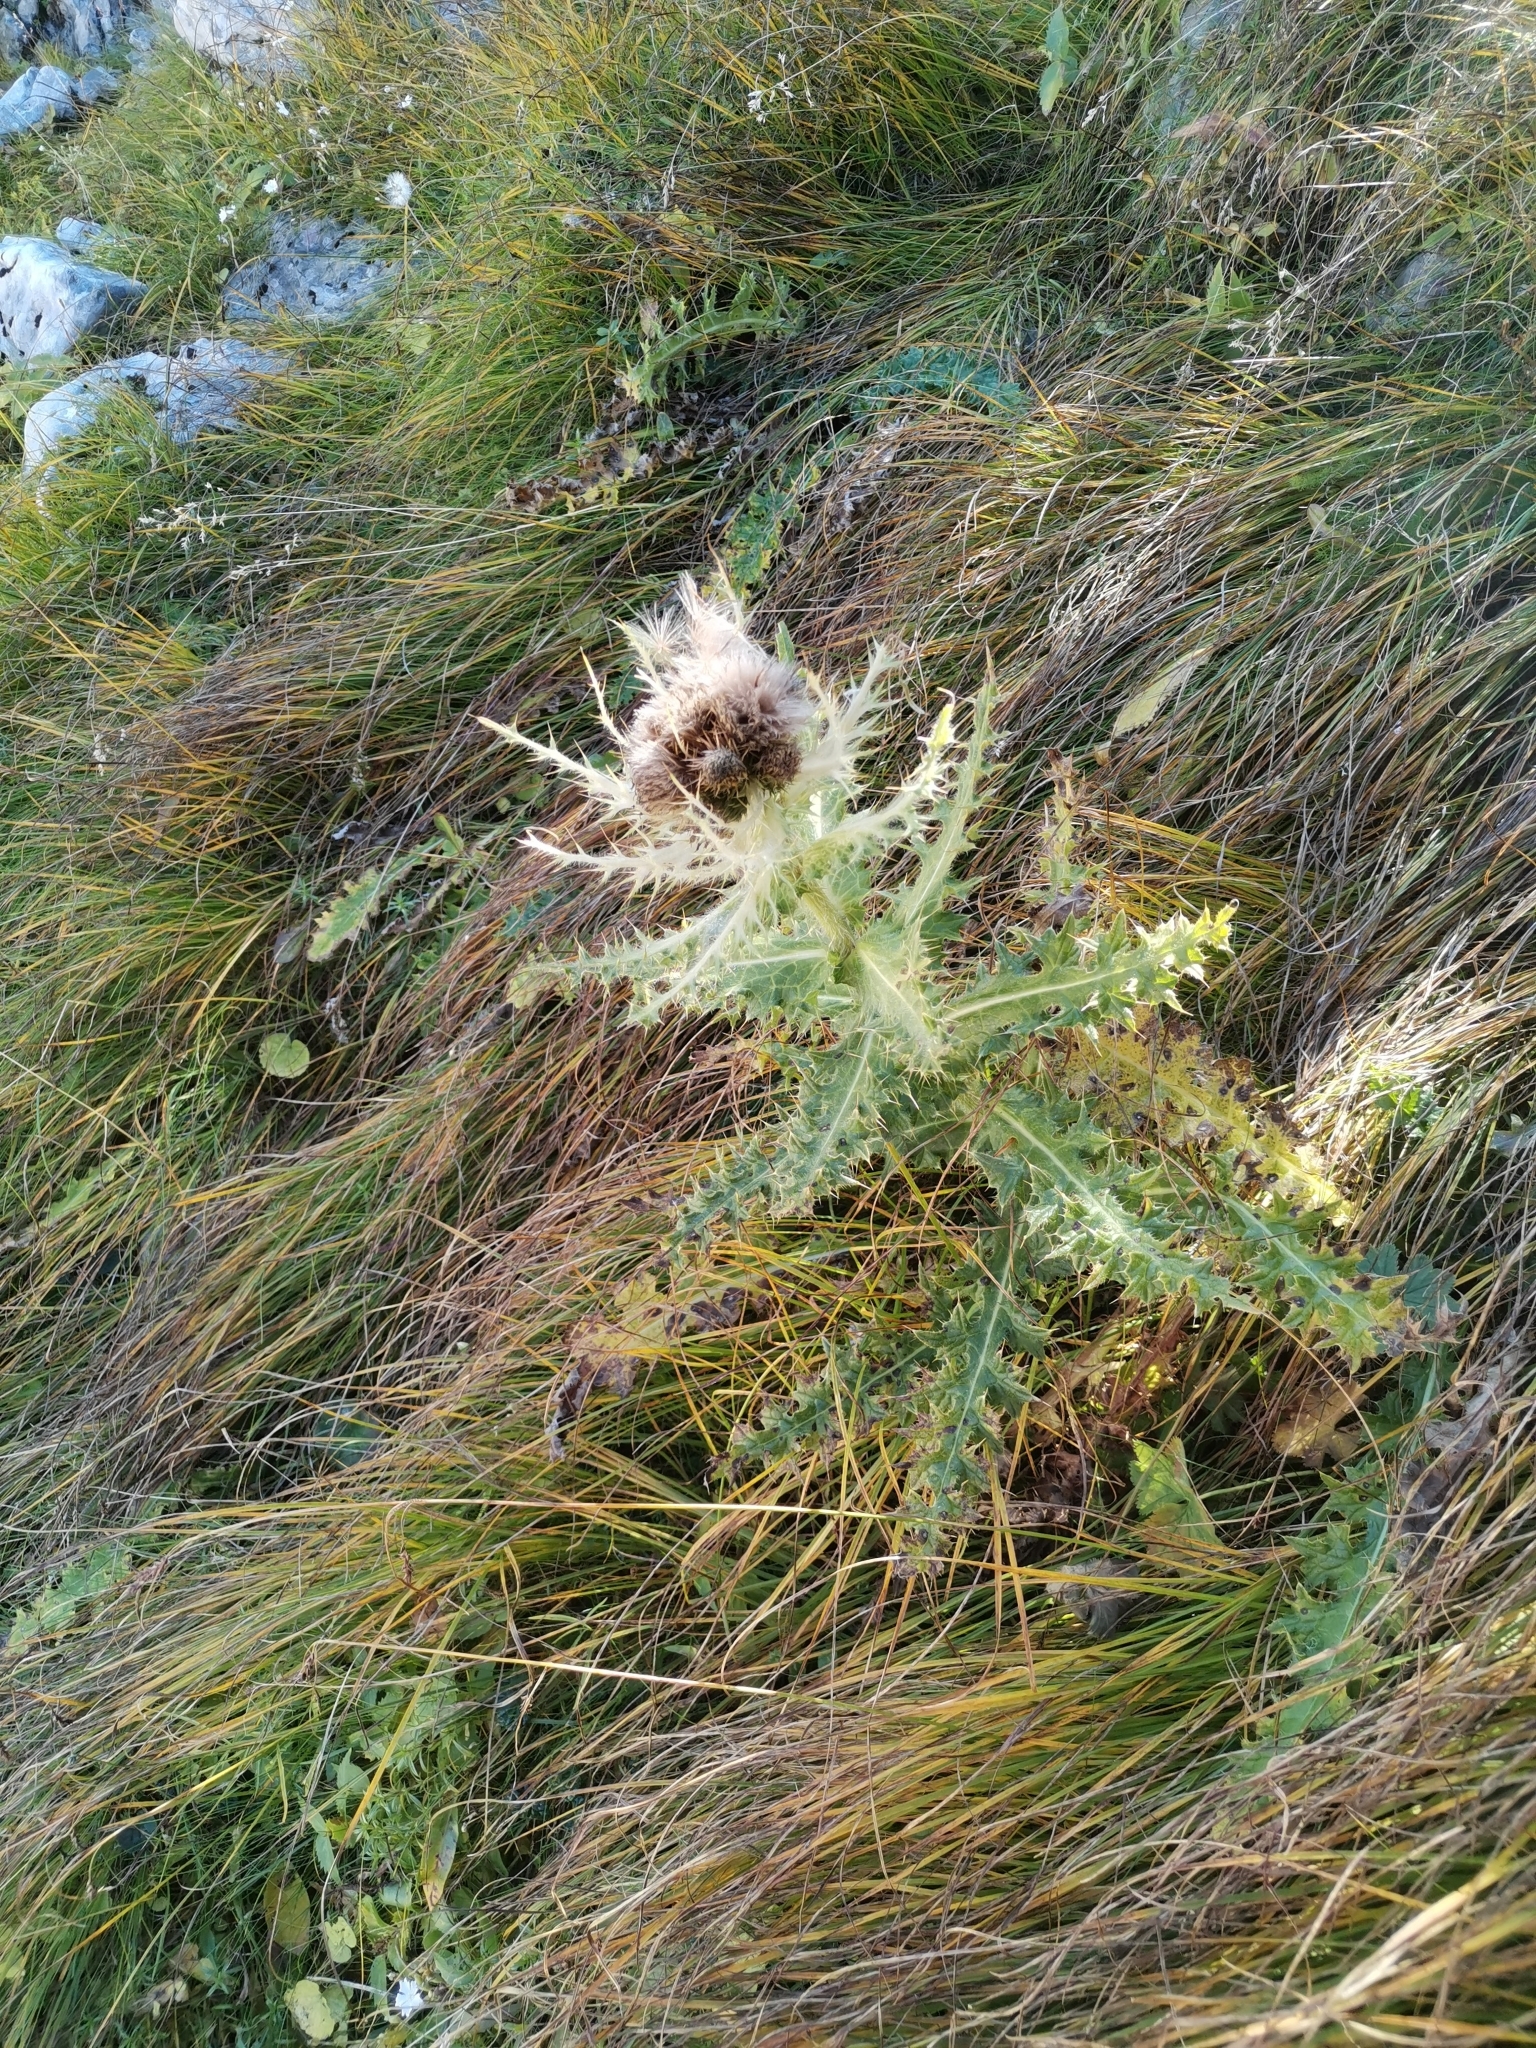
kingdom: Plantae
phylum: Tracheophyta
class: Magnoliopsida
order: Asterales
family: Asteraceae
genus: Cirsium
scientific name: Cirsium spinosissimum
